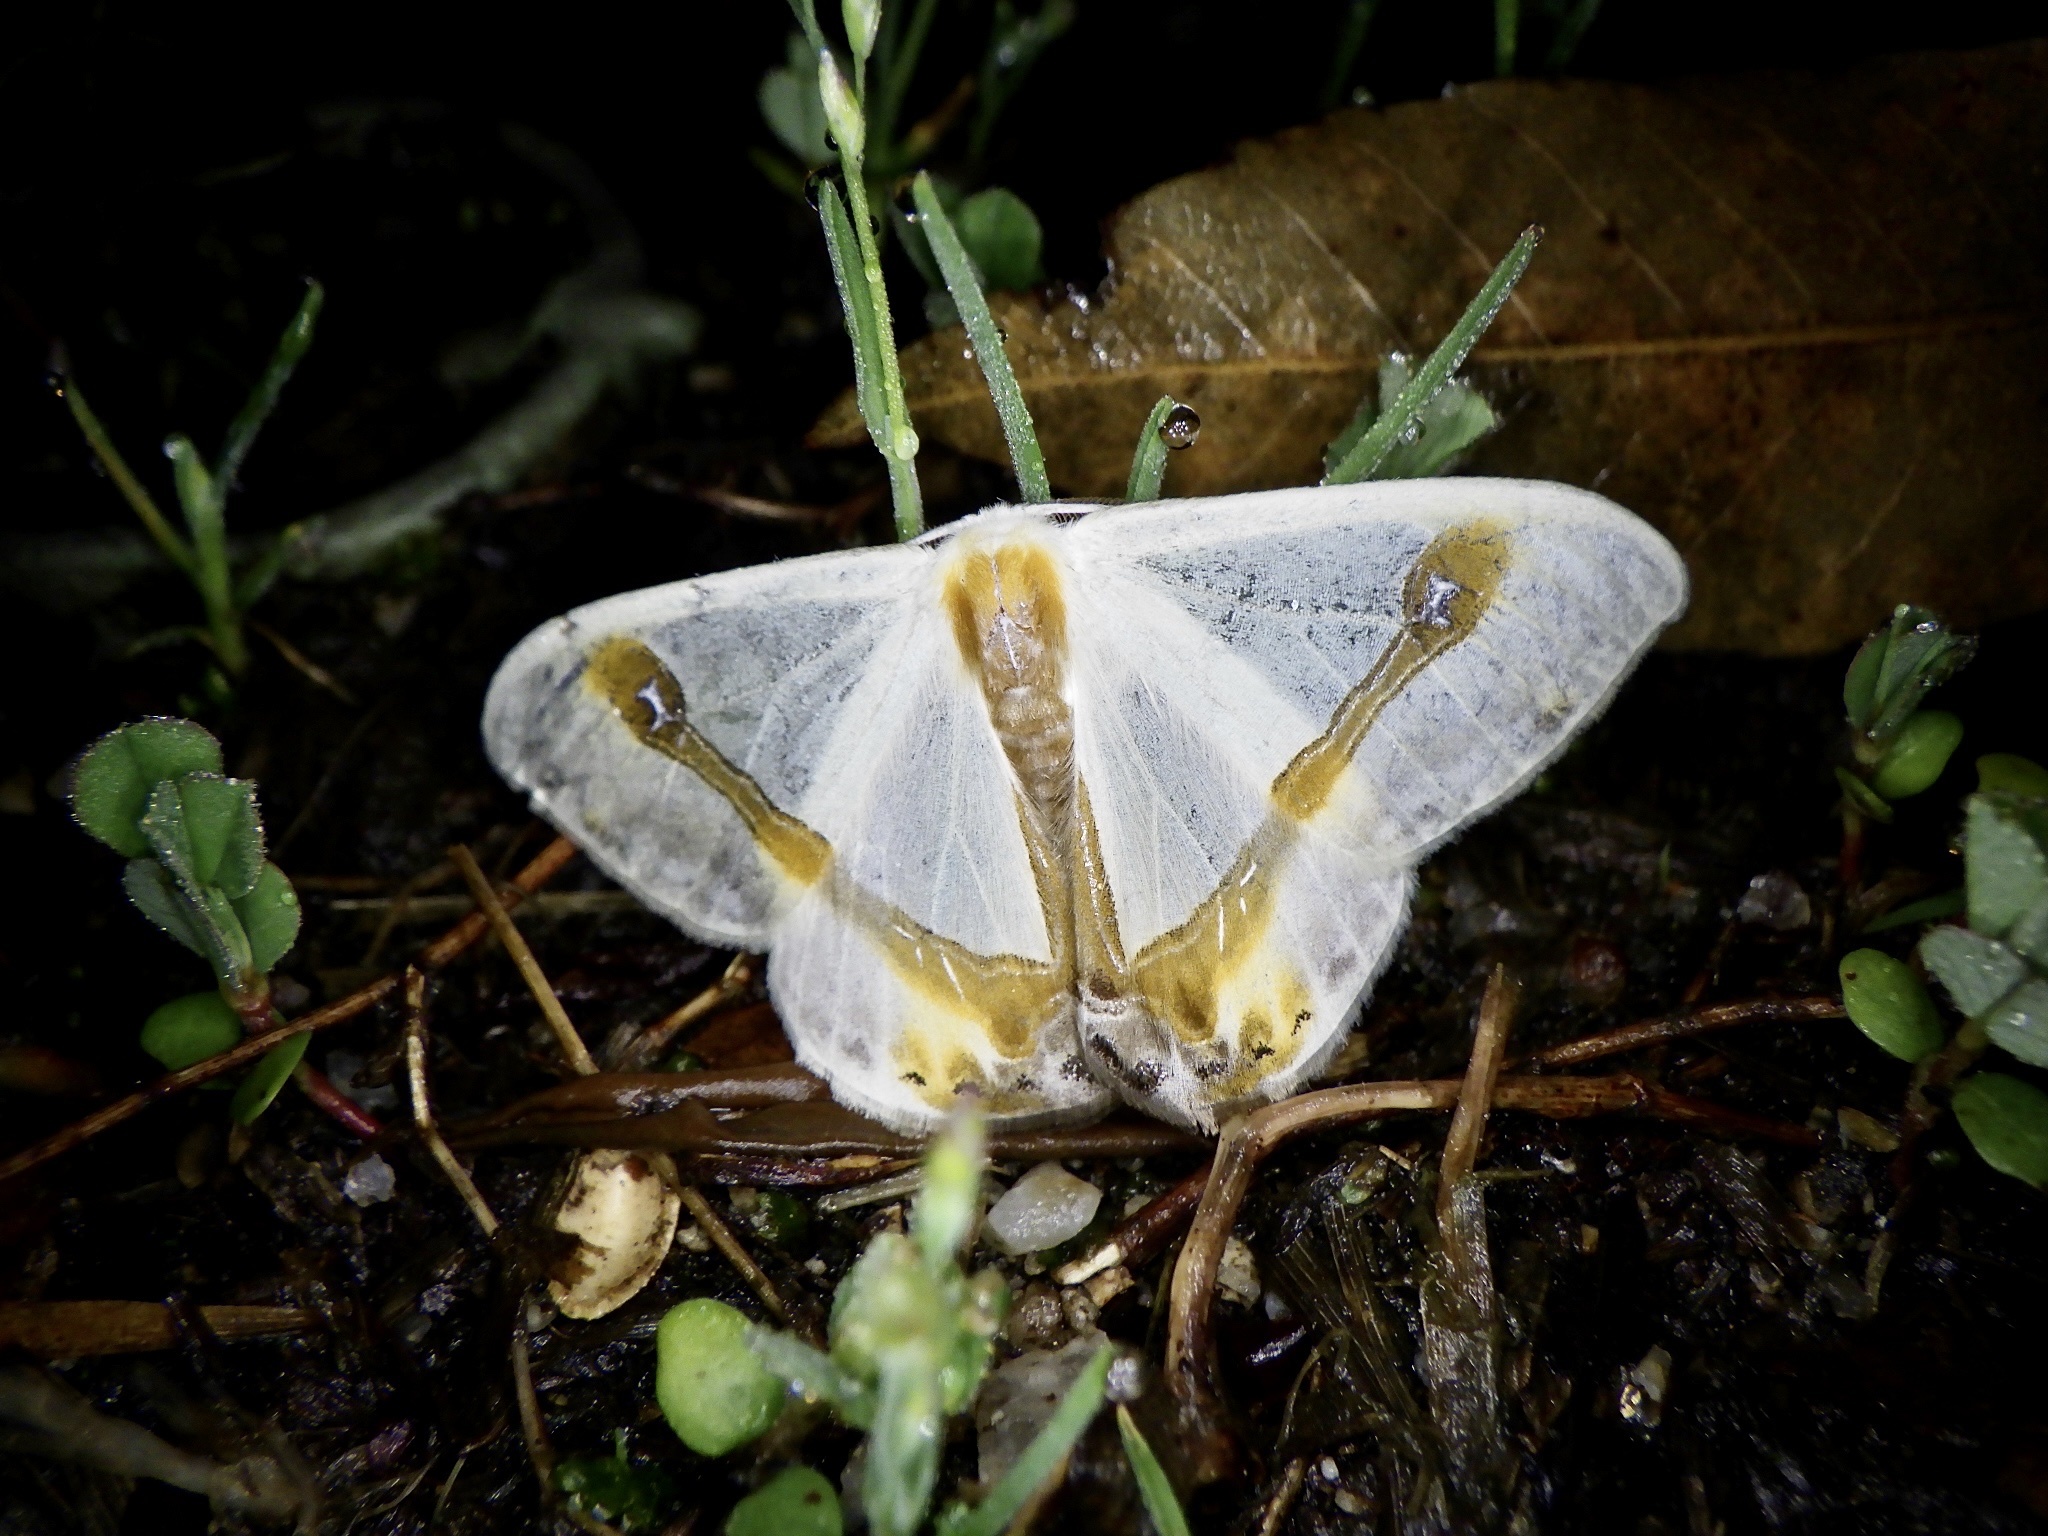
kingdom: Animalia
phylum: Arthropoda
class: Insecta
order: Lepidoptera
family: Drepanidae
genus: Macrocilix
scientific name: Macrocilix mysticata
